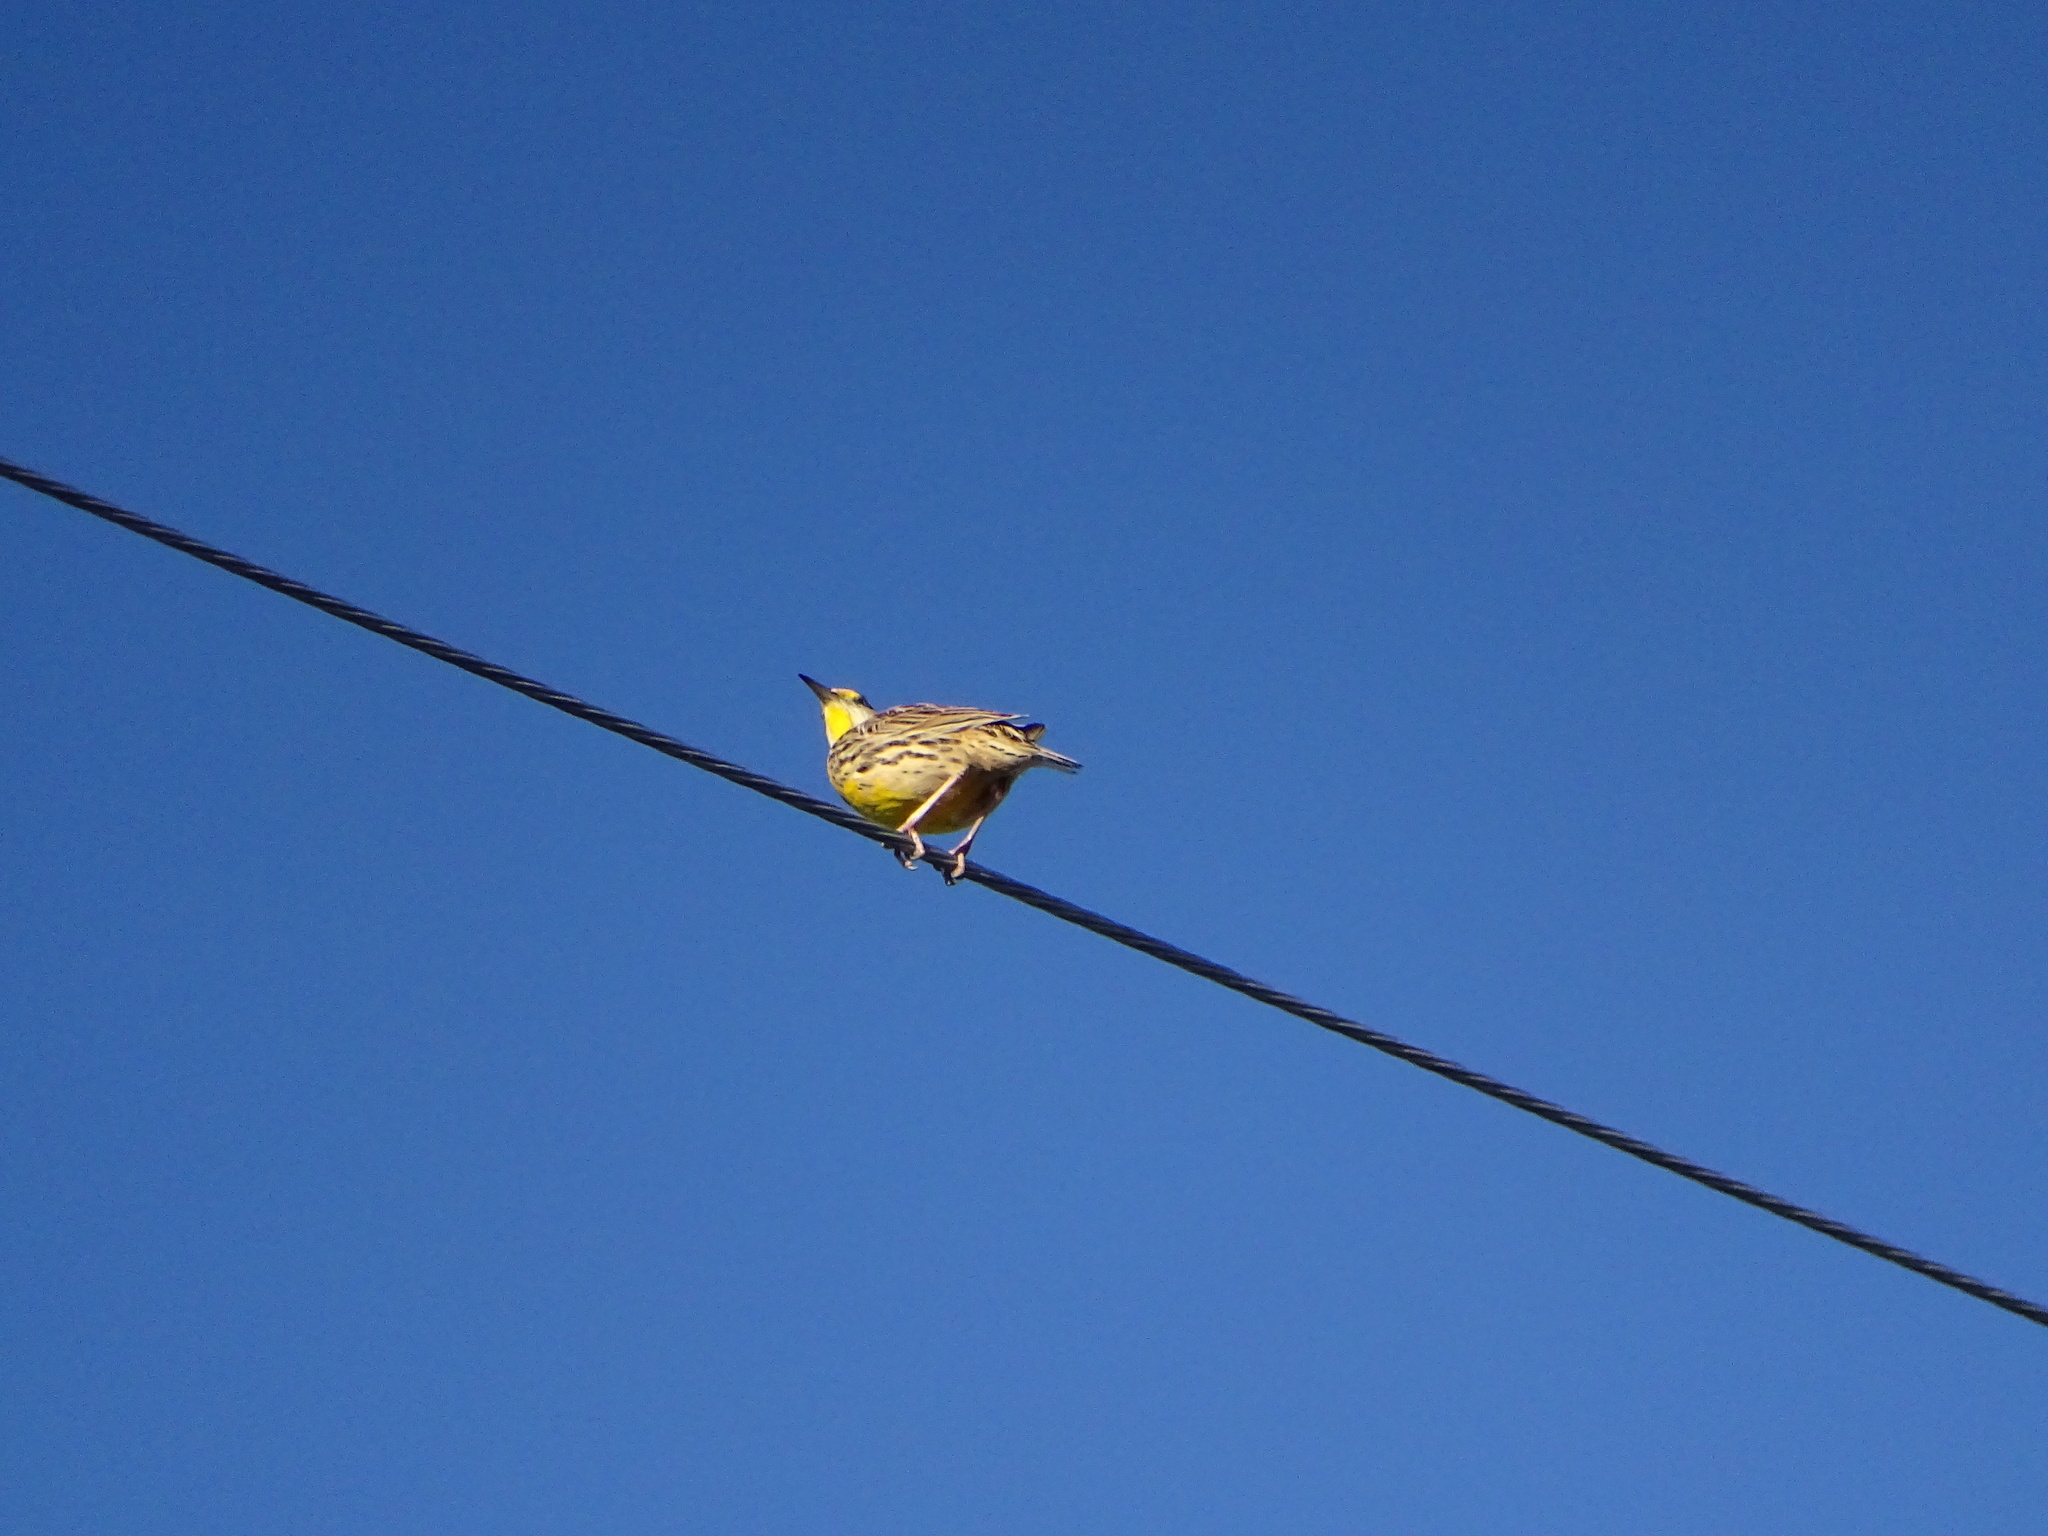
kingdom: Animalia
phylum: Chordata
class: Aves
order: Passeriformes
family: Icteridae
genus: Sturnella
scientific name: Sturnella magna
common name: Eastern meadowlark
